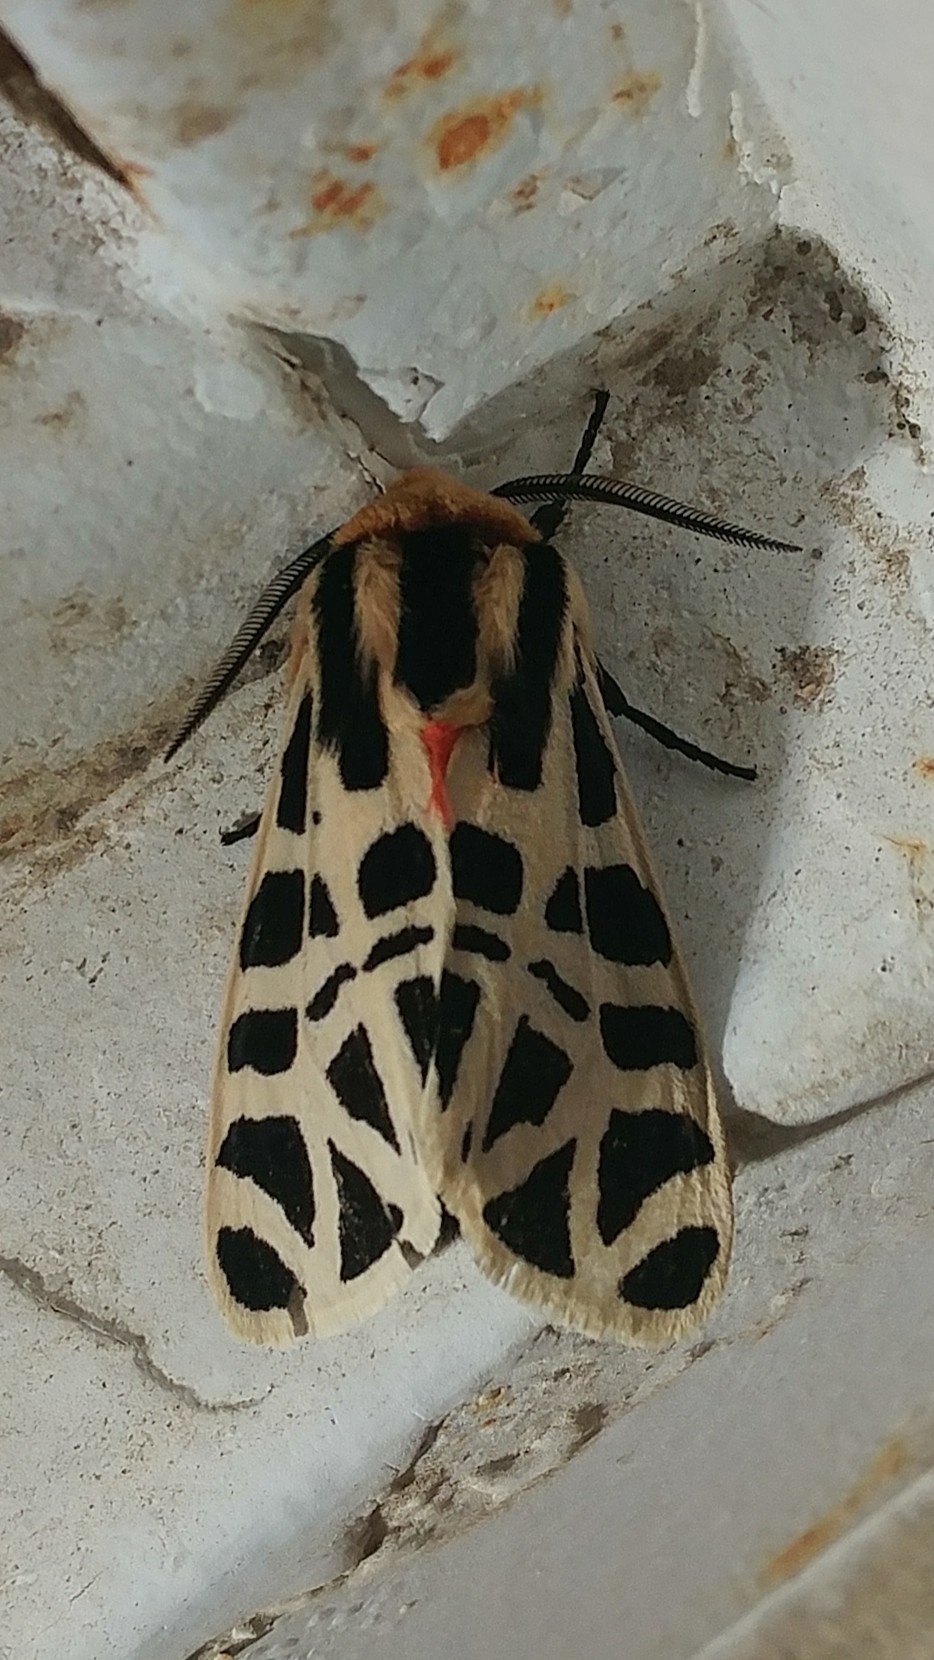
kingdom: Animalia
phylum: Arthropoda
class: Insecta
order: Lepidoptera
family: Erebidae
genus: Apantesis
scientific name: Apantesis
